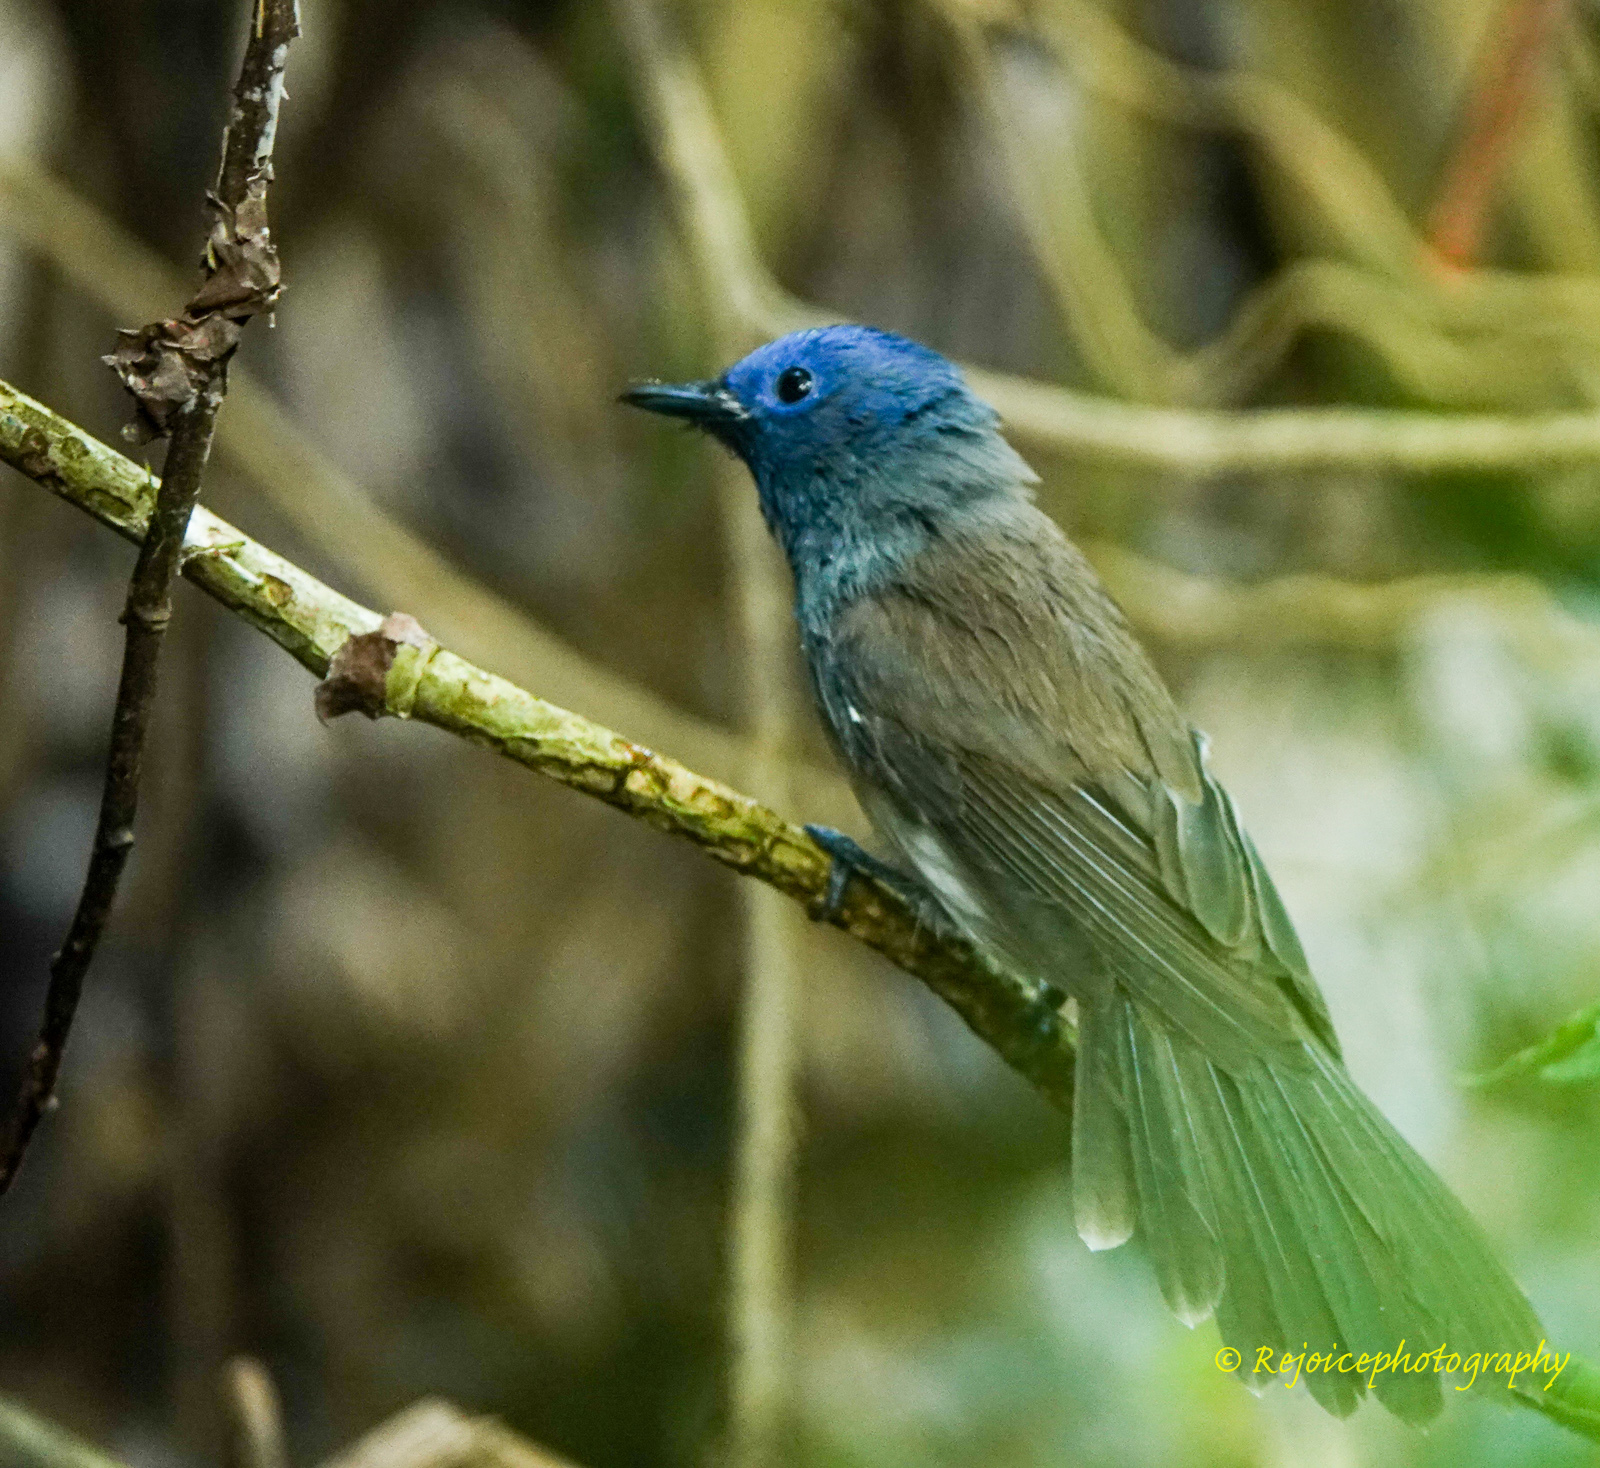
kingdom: Animalia
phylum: Chordata
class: Aves
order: Passeriformes
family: Monarchidae
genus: Hypothymis
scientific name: Hypothymis azurea
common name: Black-naped monarch
